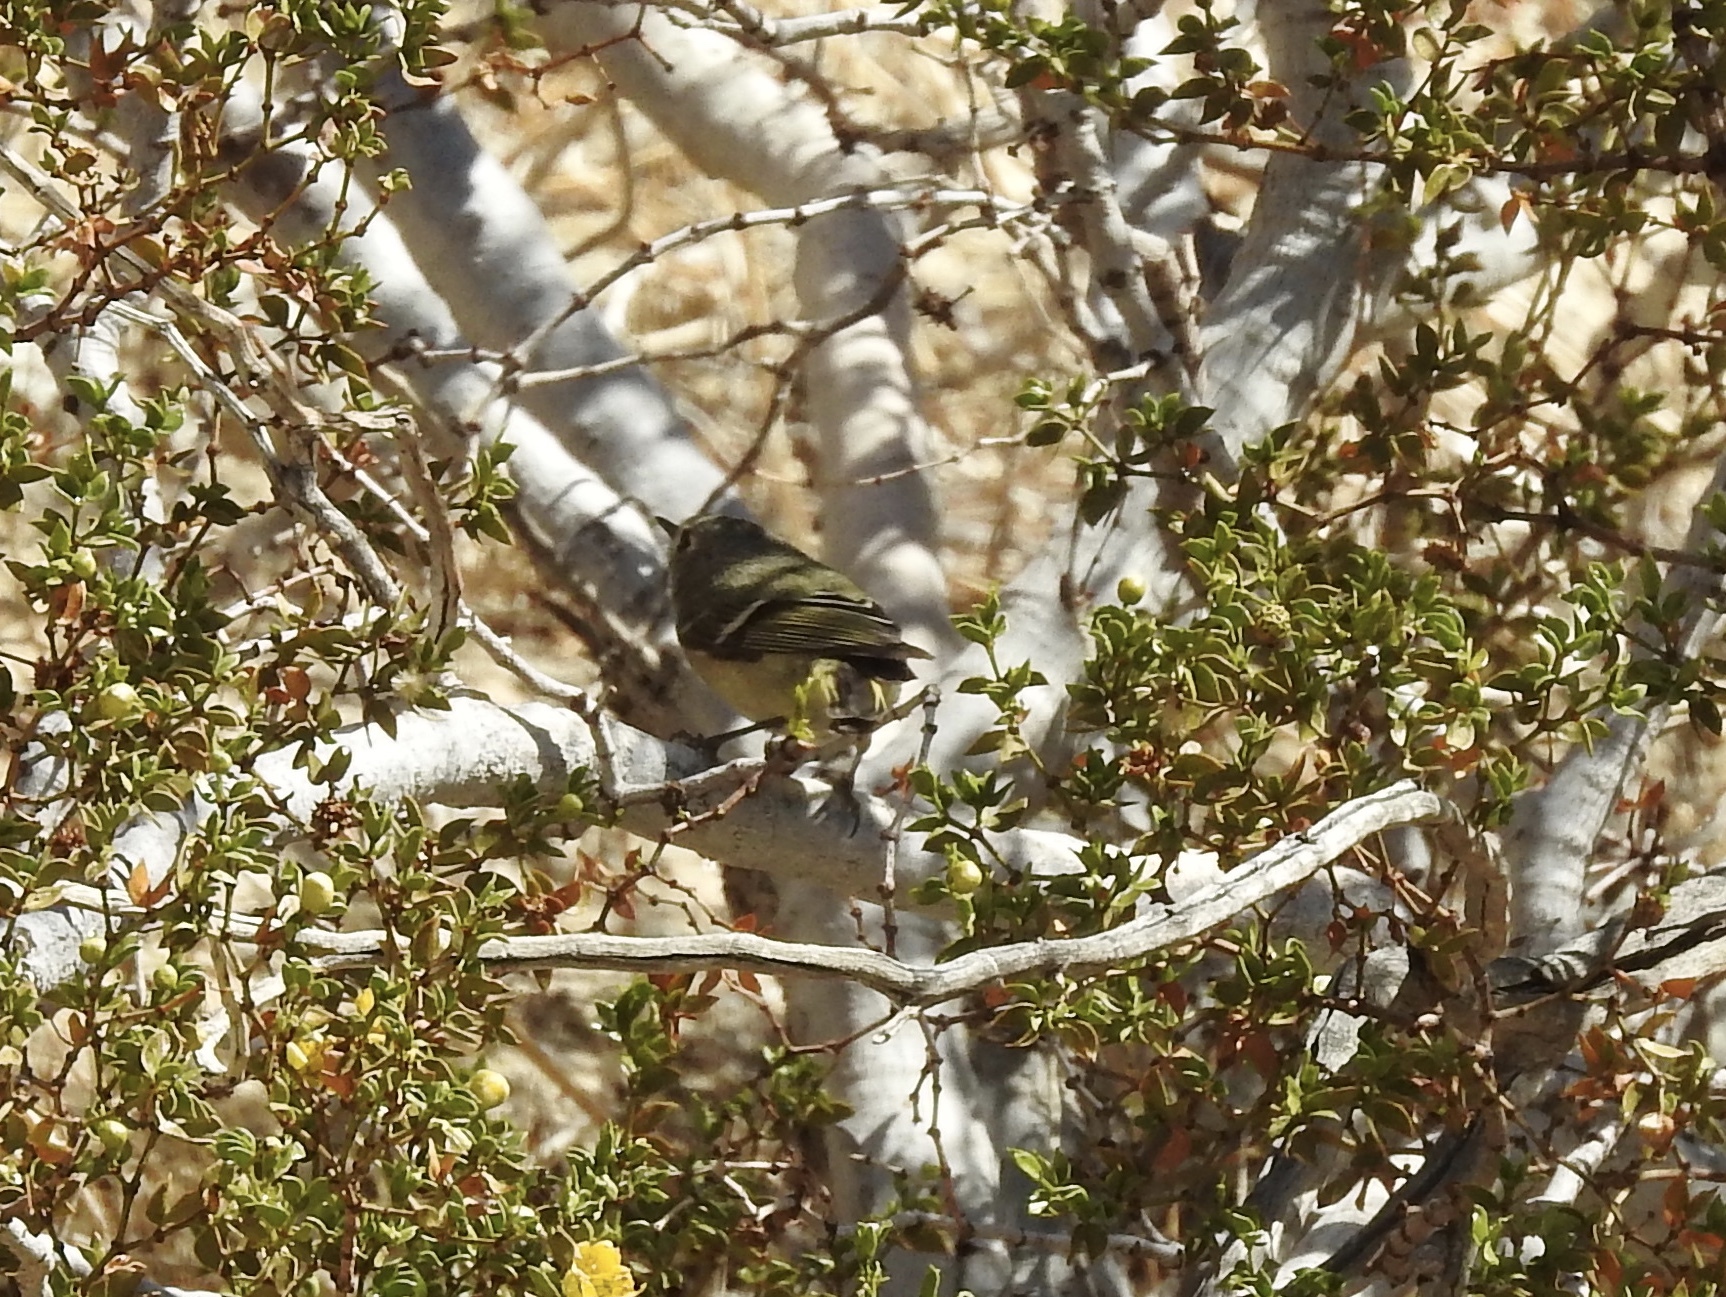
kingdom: Animalia
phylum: Chordata
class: Aves
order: Passeriformes
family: Regulidae
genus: Regulus
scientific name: Regulus calendula
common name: Ruby-crowned kinglet
